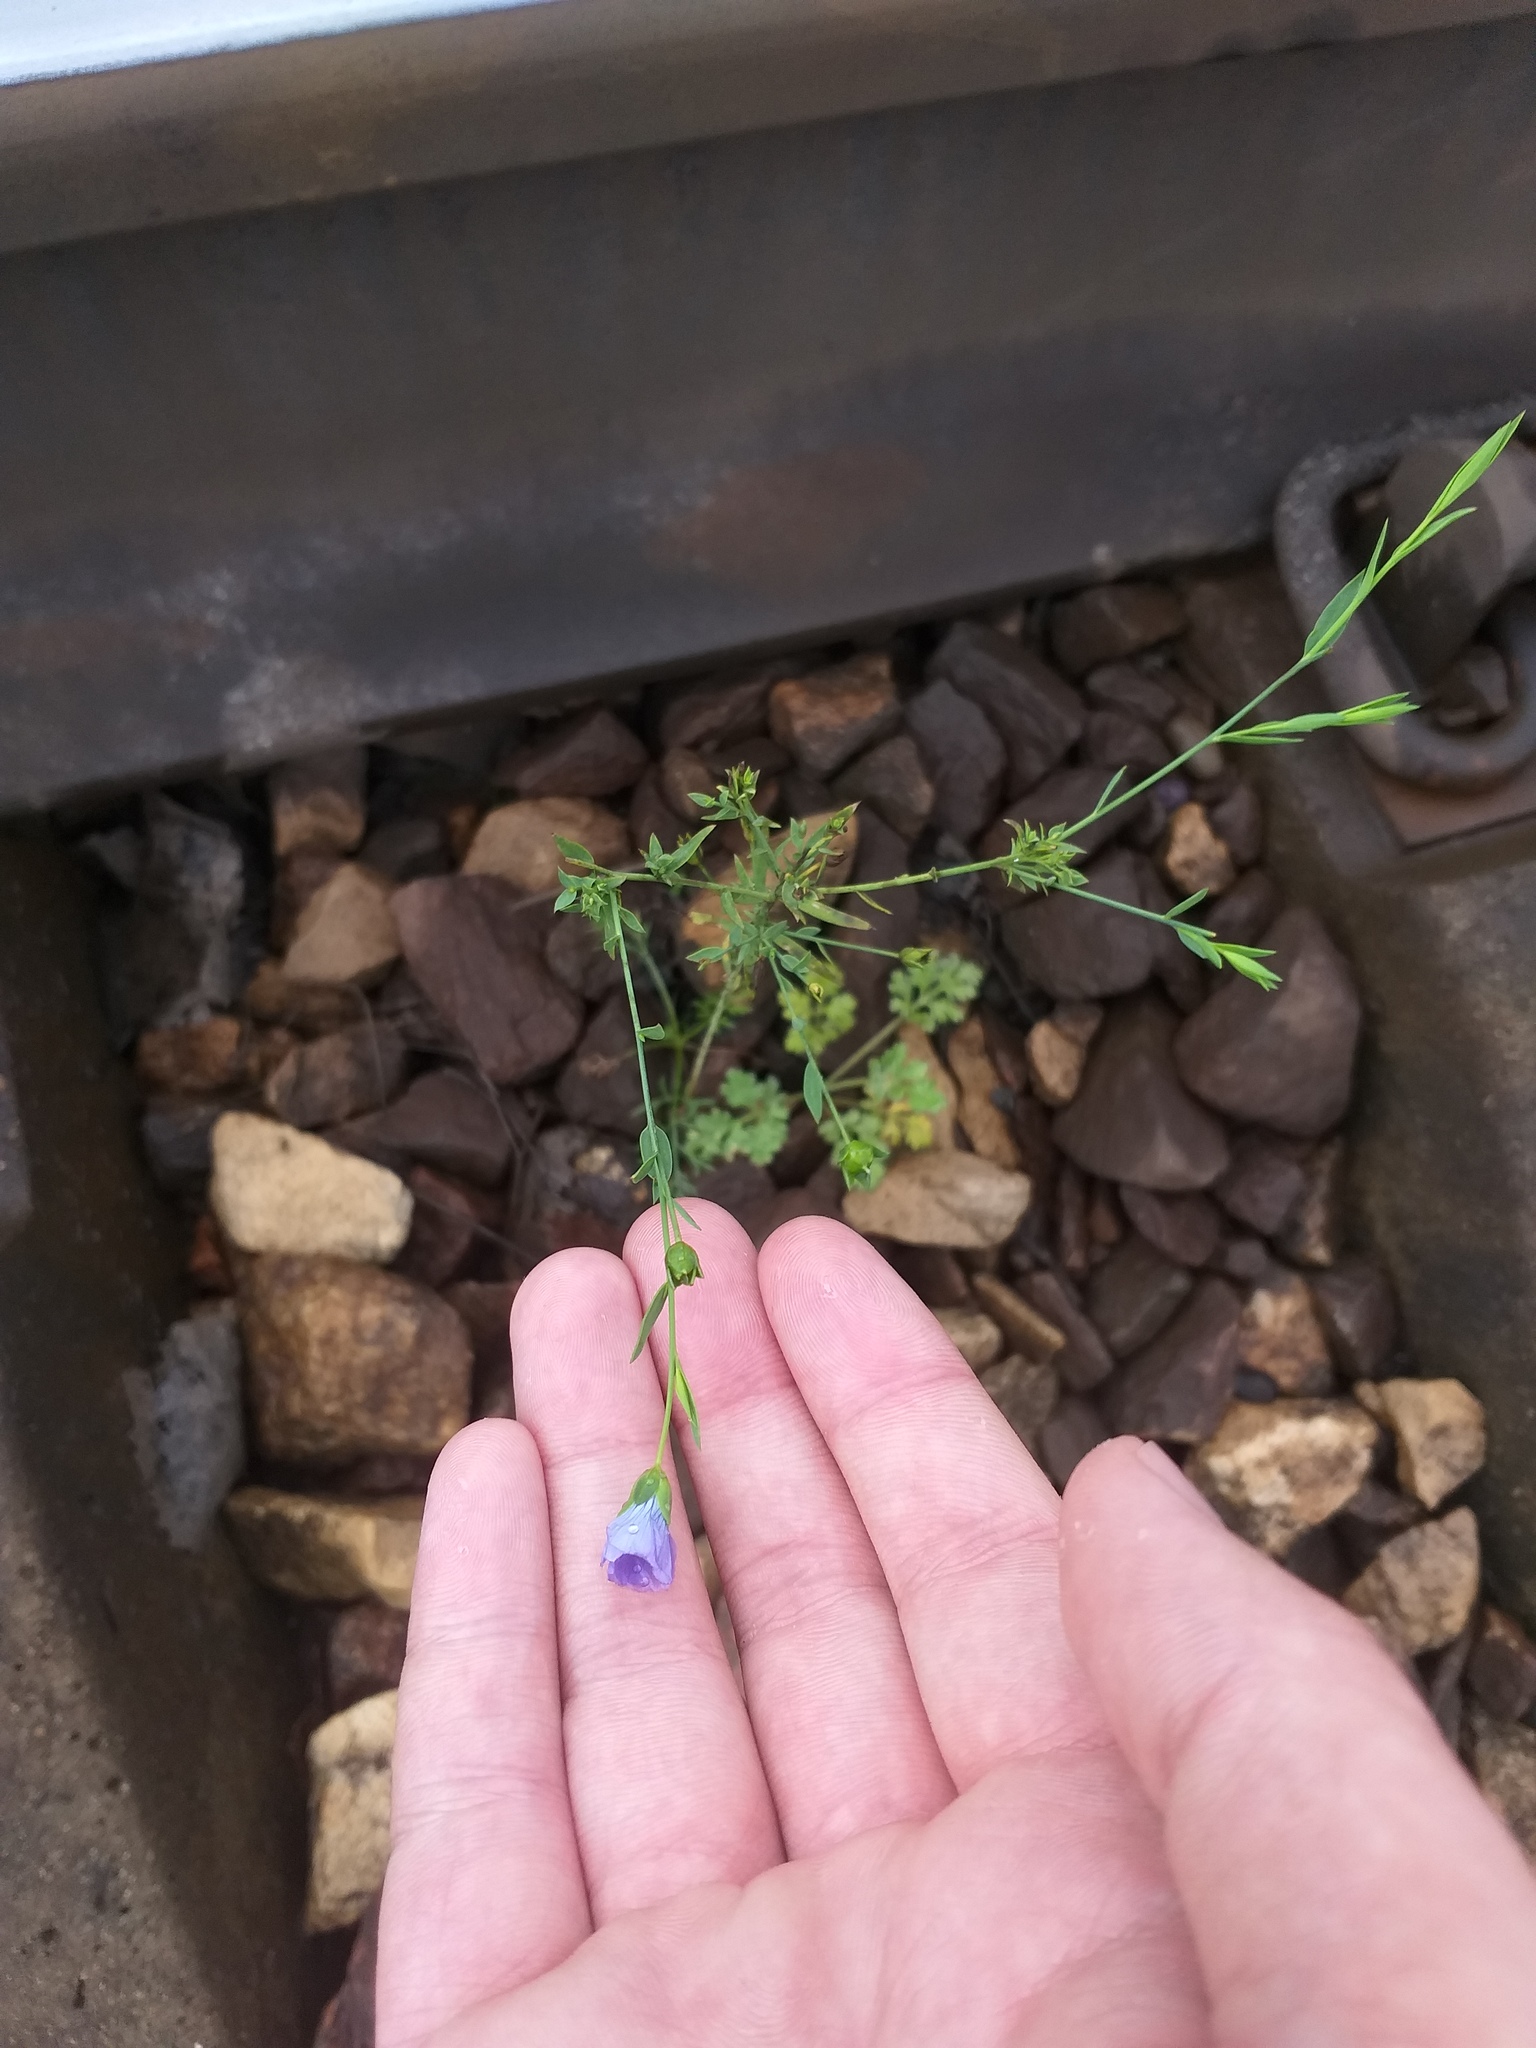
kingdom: Plantae
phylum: Tracheophyta
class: Magnoliopsida
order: Malpighiales
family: Linaceae
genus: Linum
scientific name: Linum usitatissimum
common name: Flax
